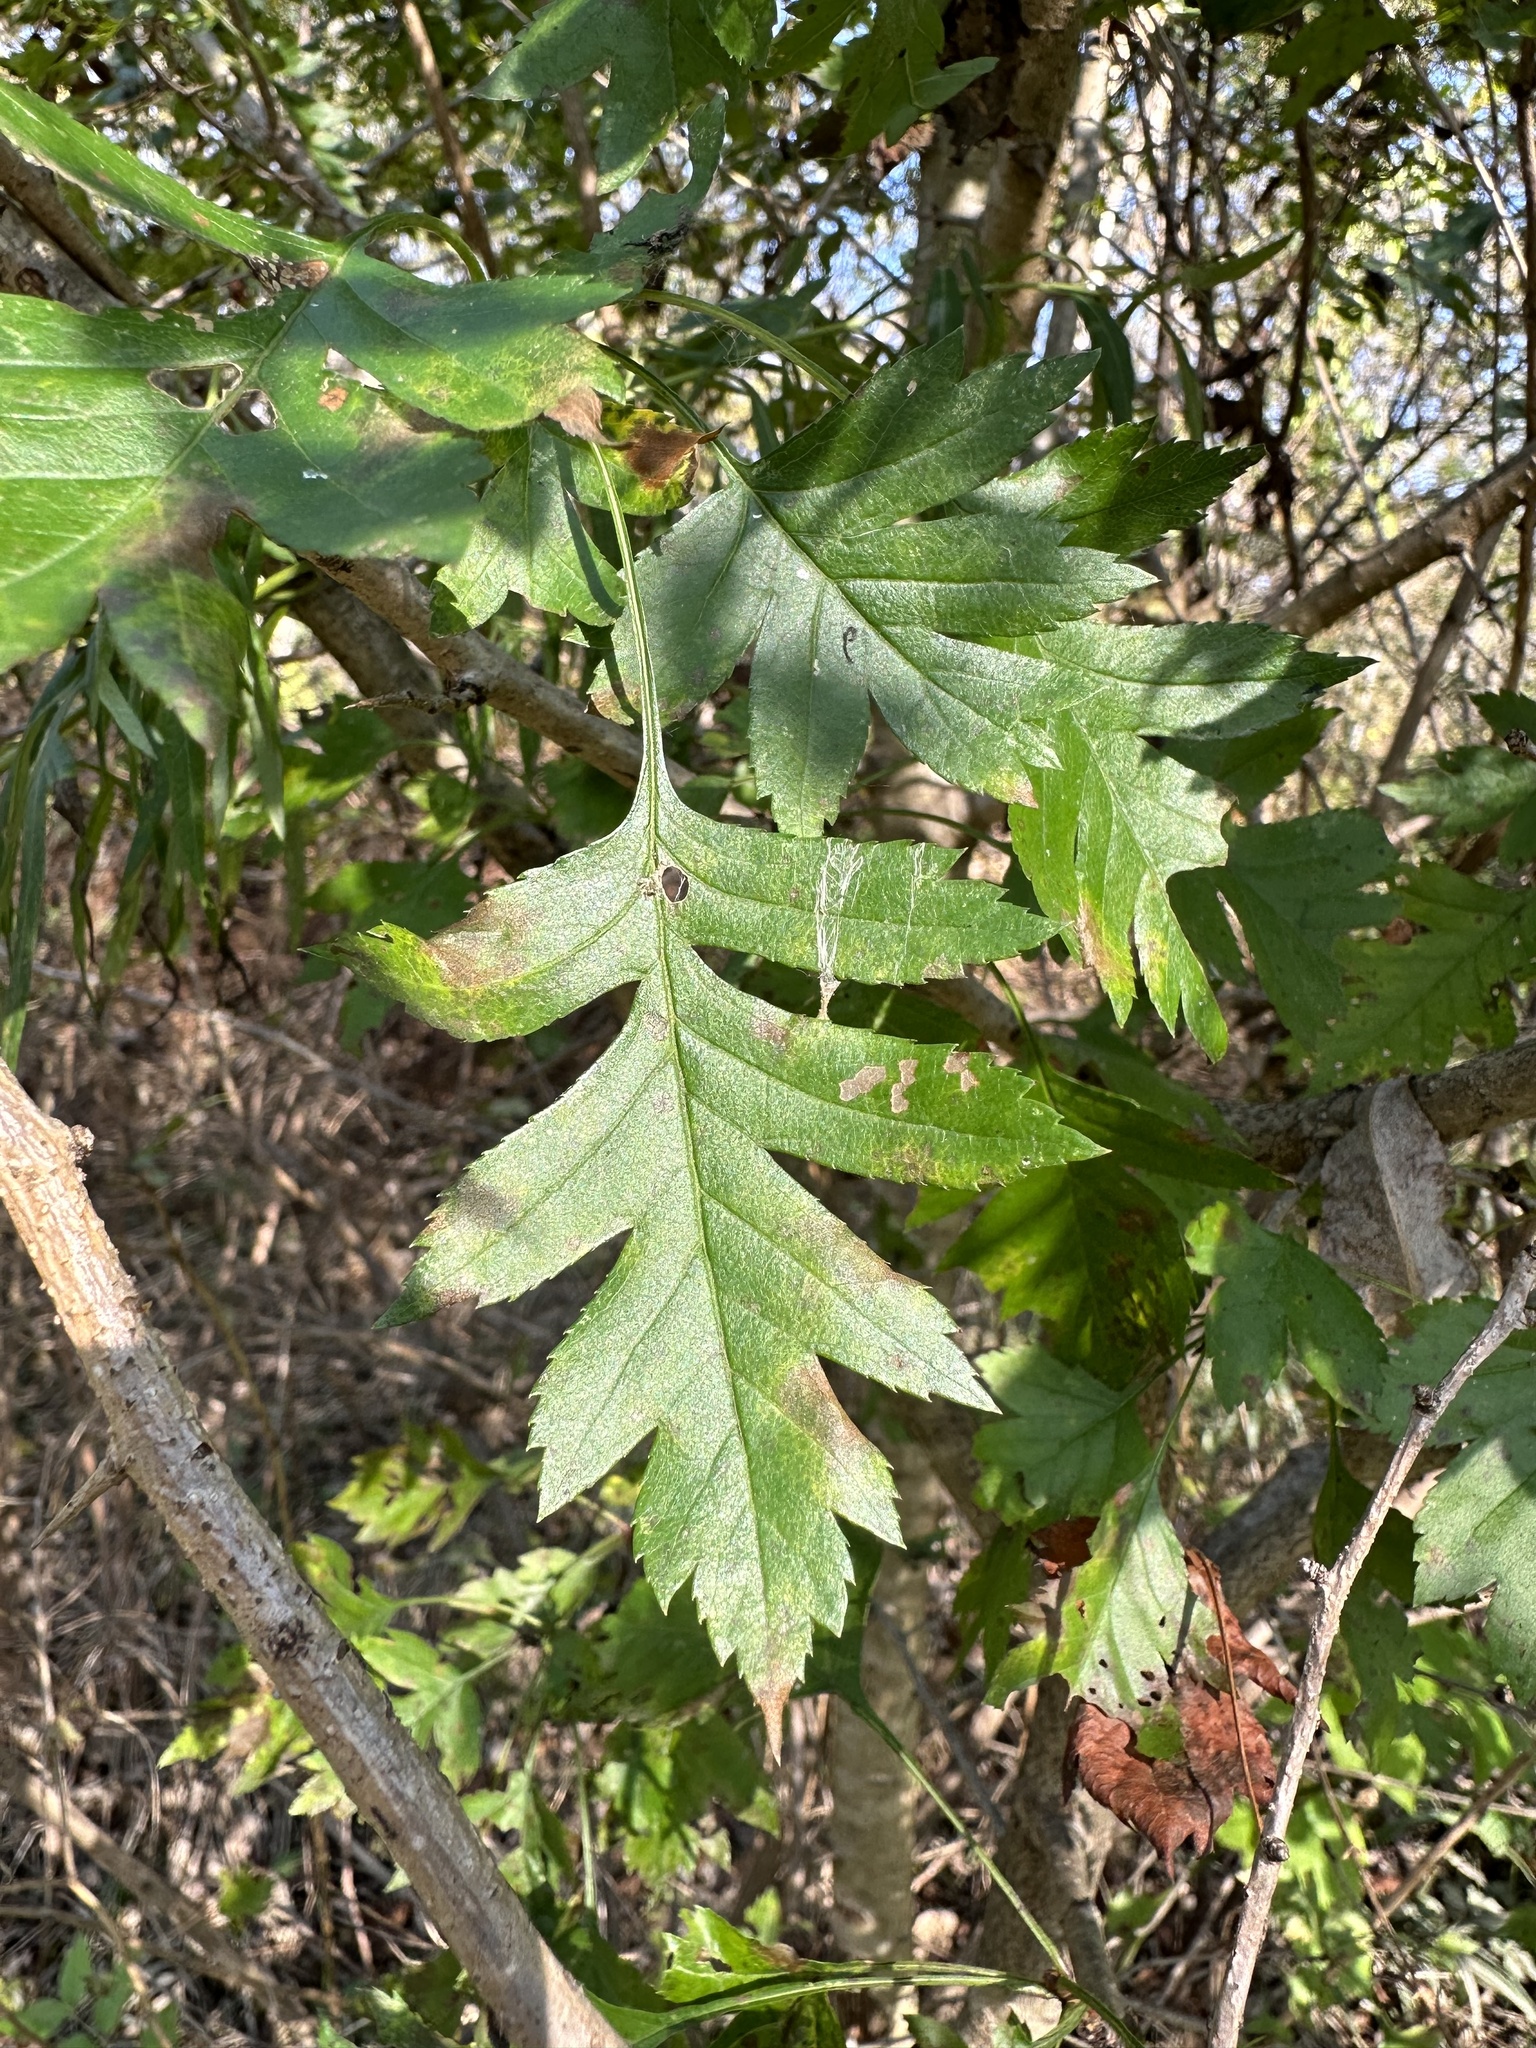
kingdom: Plantae
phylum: Tracheophyta
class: Magnoliopsida
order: Rosales
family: Rosaceae
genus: Crataegus
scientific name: Crataegus pinnatifida
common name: Chinese haw
